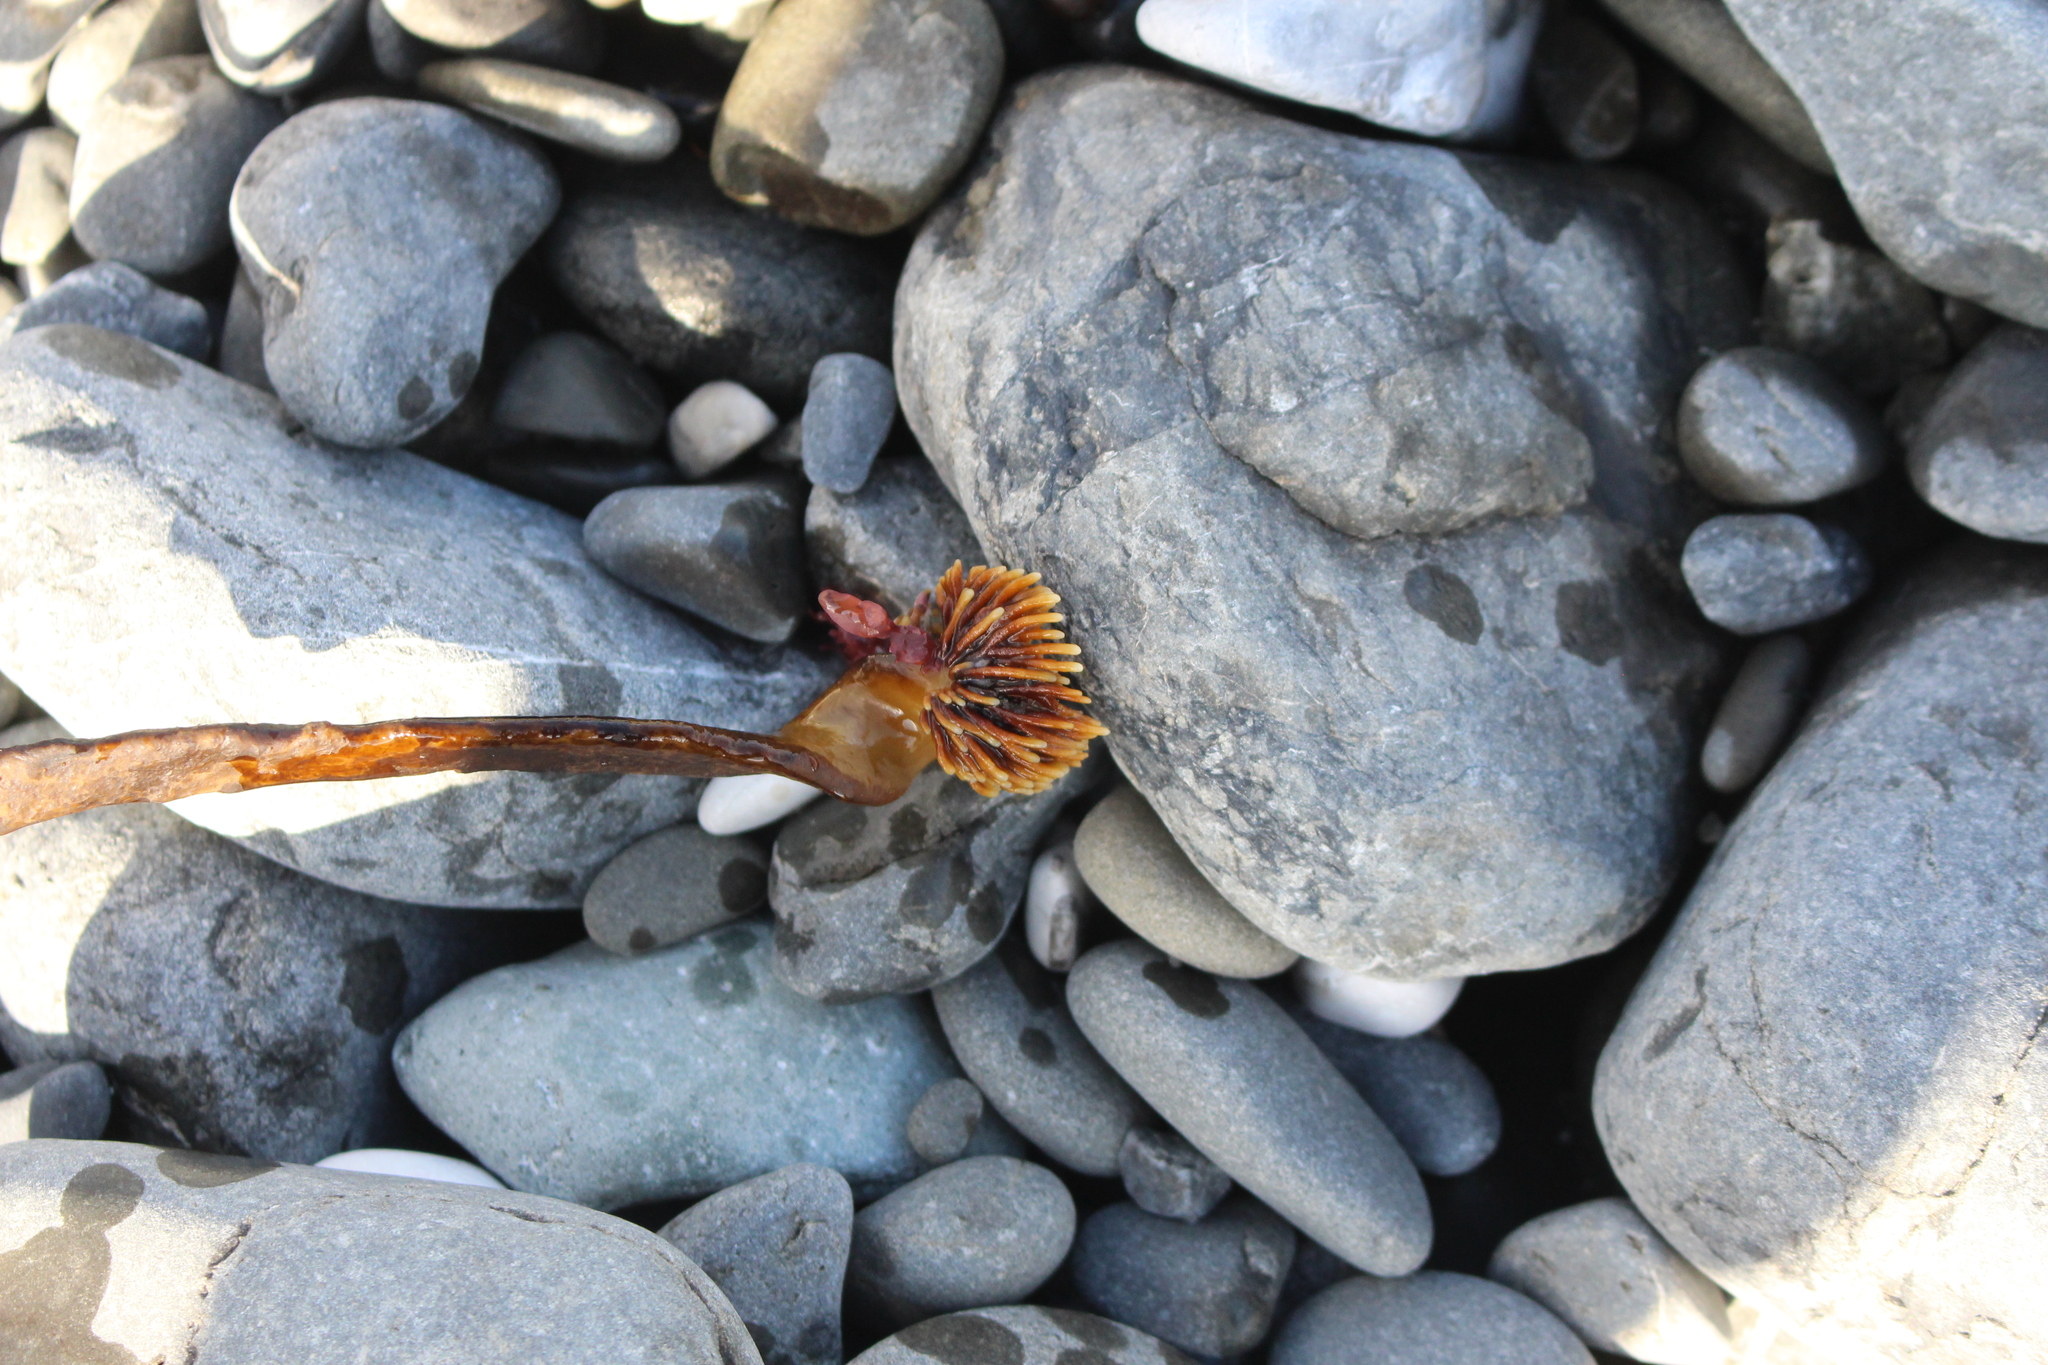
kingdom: Chromista
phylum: Ochrophyta
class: Phaeophyceae
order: Fucales
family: Seirococcaceae
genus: Marginariella
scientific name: Marginariella urvilliana
